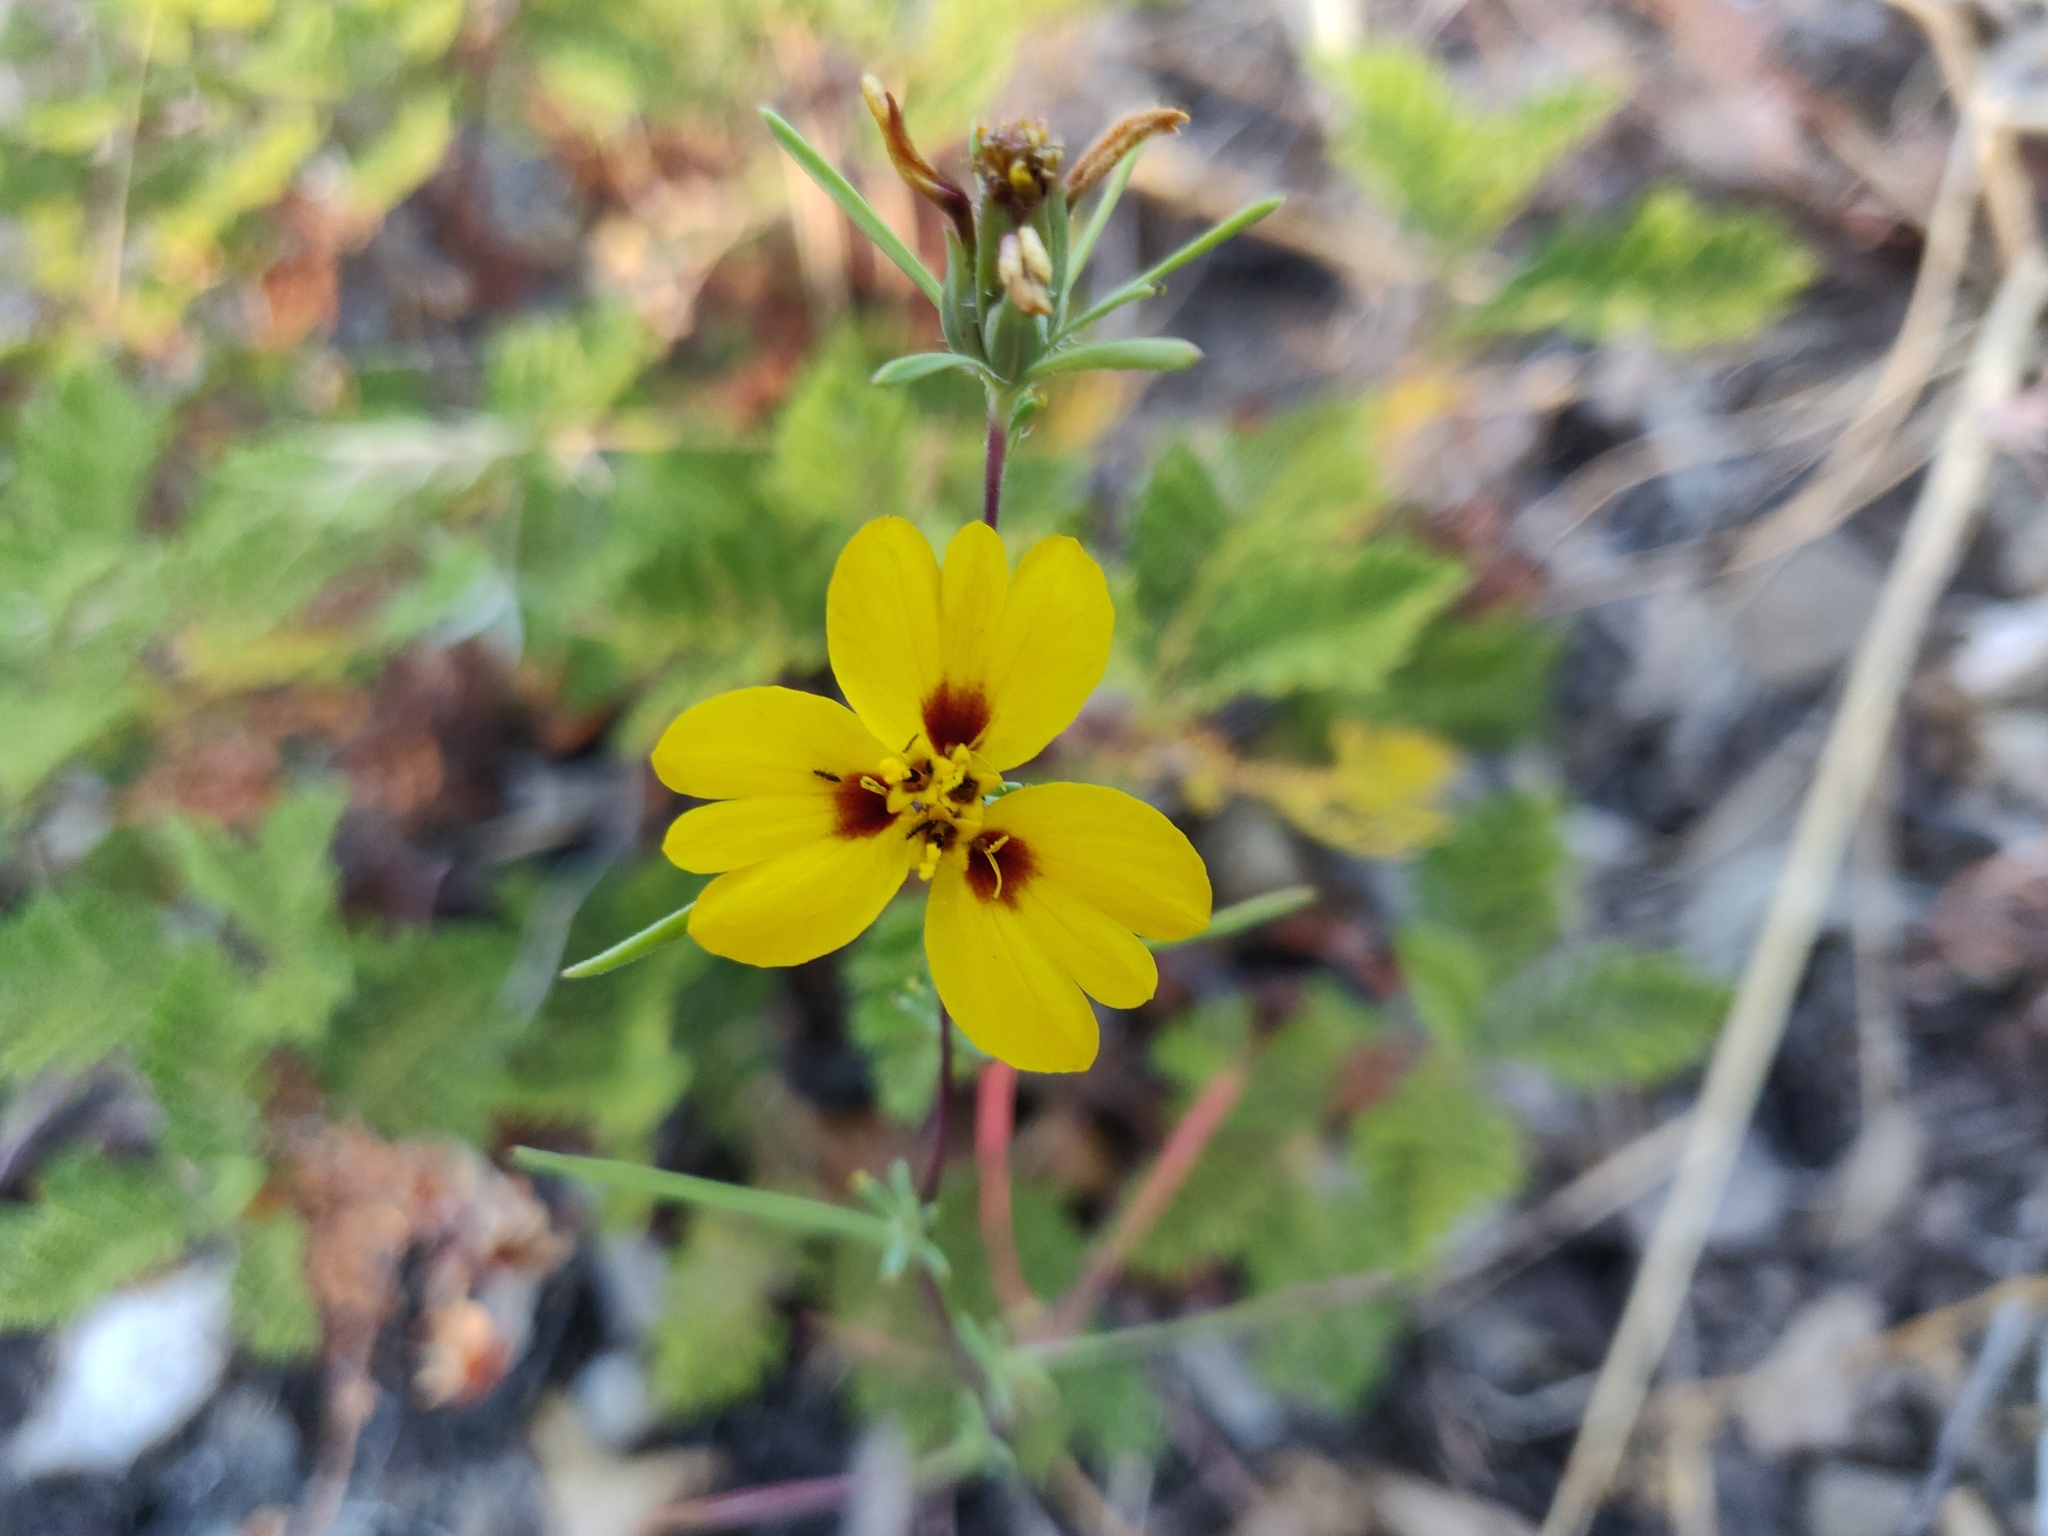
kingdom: Plantae
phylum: Tracheophyta
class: Magnoliopsida
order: Asterales
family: Asteraceae
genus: Calycadenia
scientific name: Calycadenia truncata
